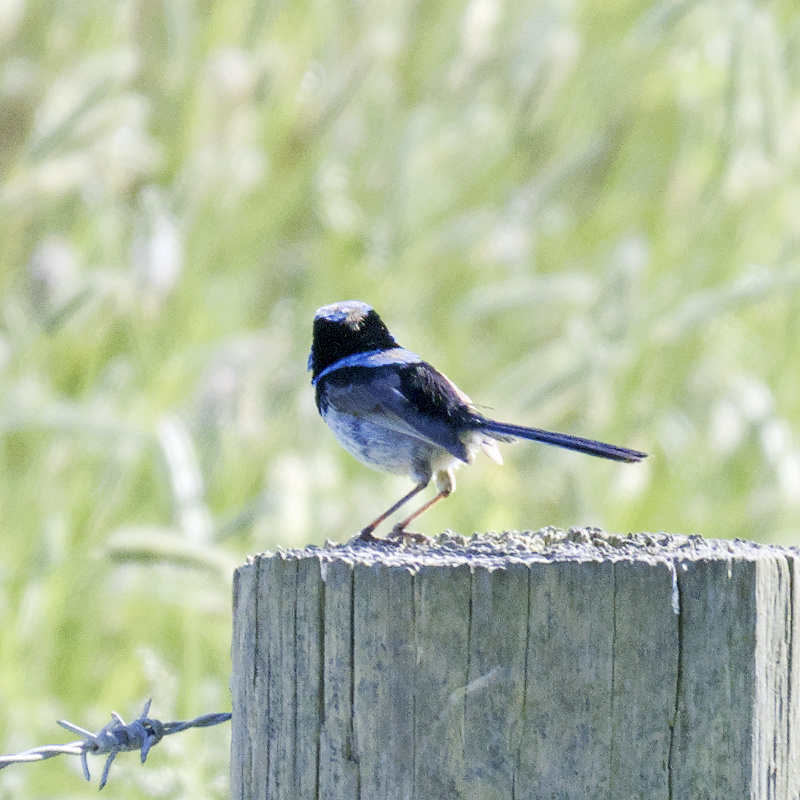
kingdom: Animalia
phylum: Chordata
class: Aves
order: Passeriformes
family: Maluridae
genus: Malurus
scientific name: Malurus cyaneus
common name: Superb fairywren
